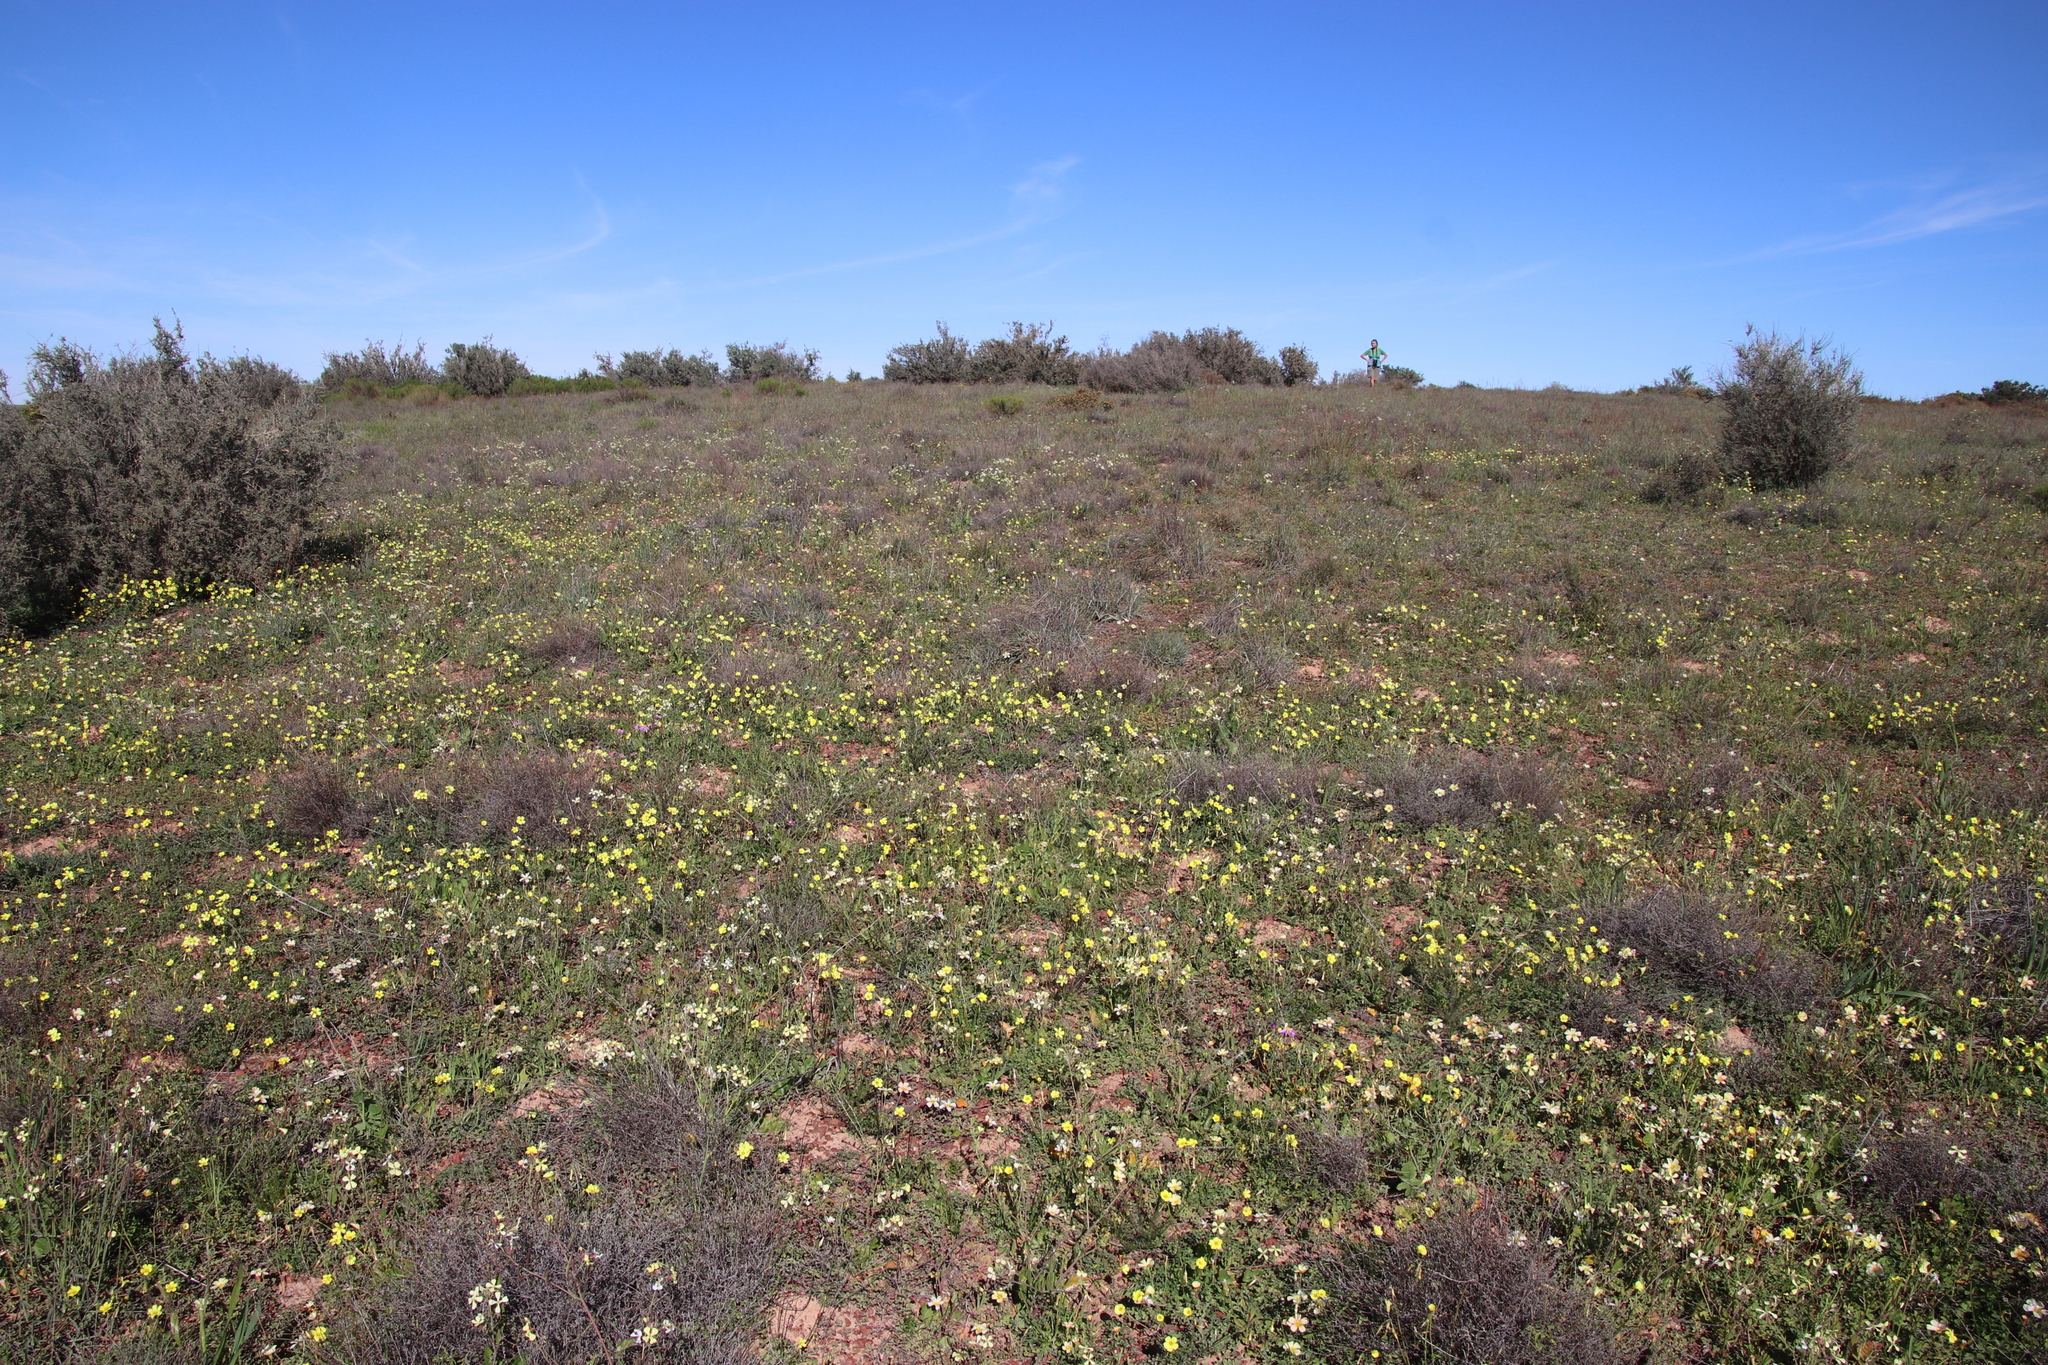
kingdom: Plantae
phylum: Tracheophyta
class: Magnoliopsida
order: Oxalidales
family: Oxalidaceae
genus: Oxalis
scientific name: Oxalis pes-caprae
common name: Bermuda-buttercup
